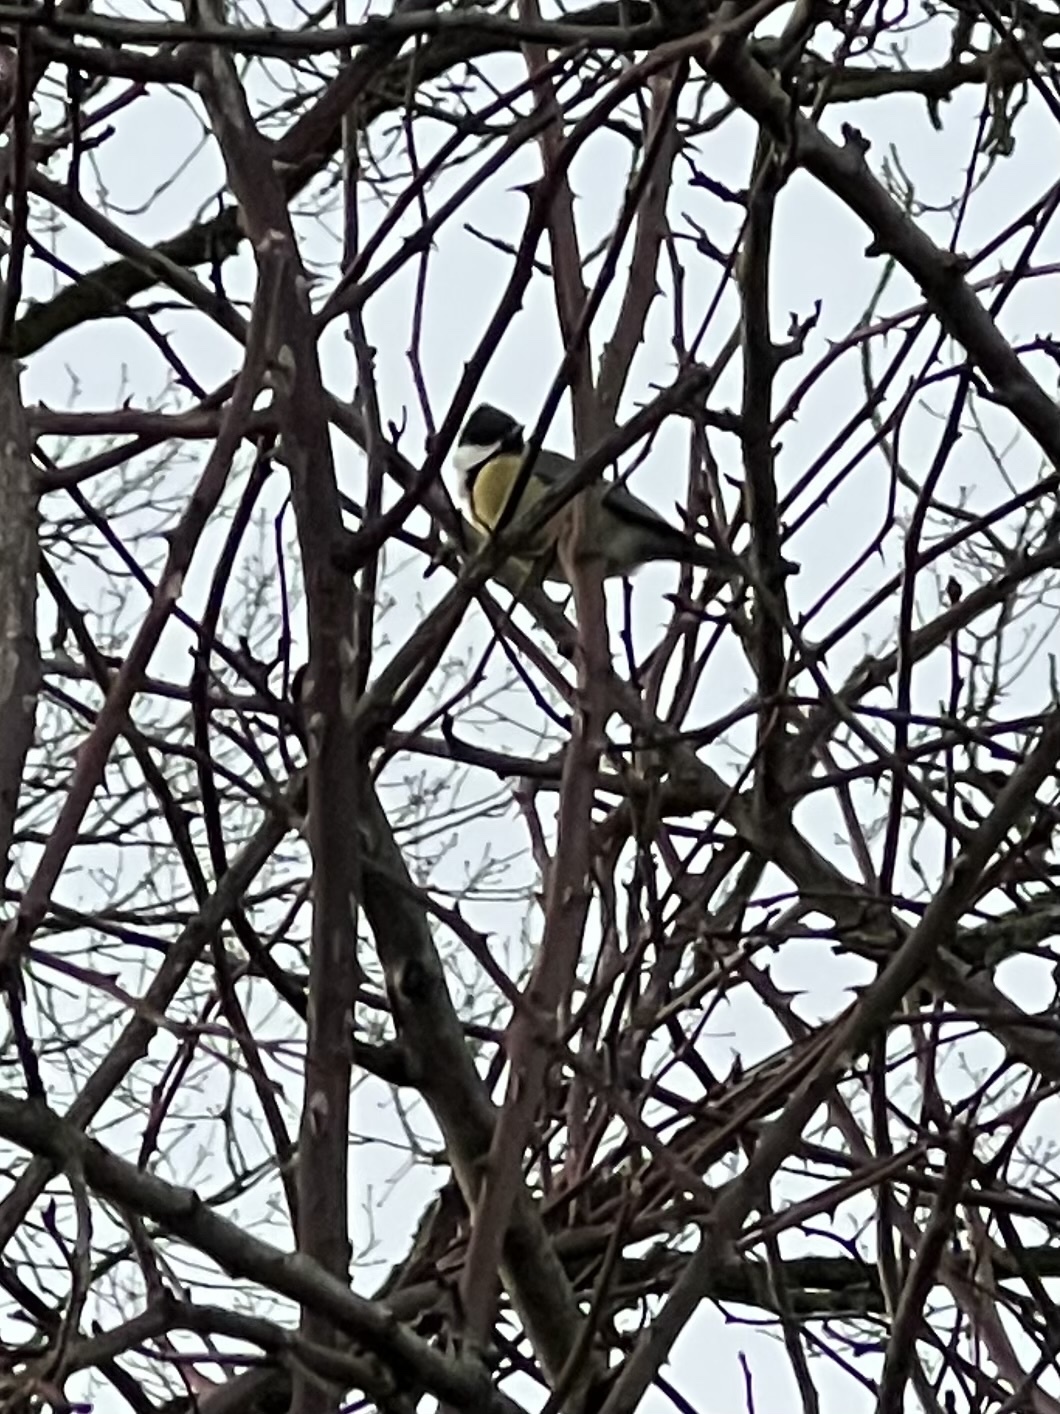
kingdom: Animalia
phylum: Chordata
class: Aves
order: Passeriformes
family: Paridae
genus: Parus
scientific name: Parus major
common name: Great tit
